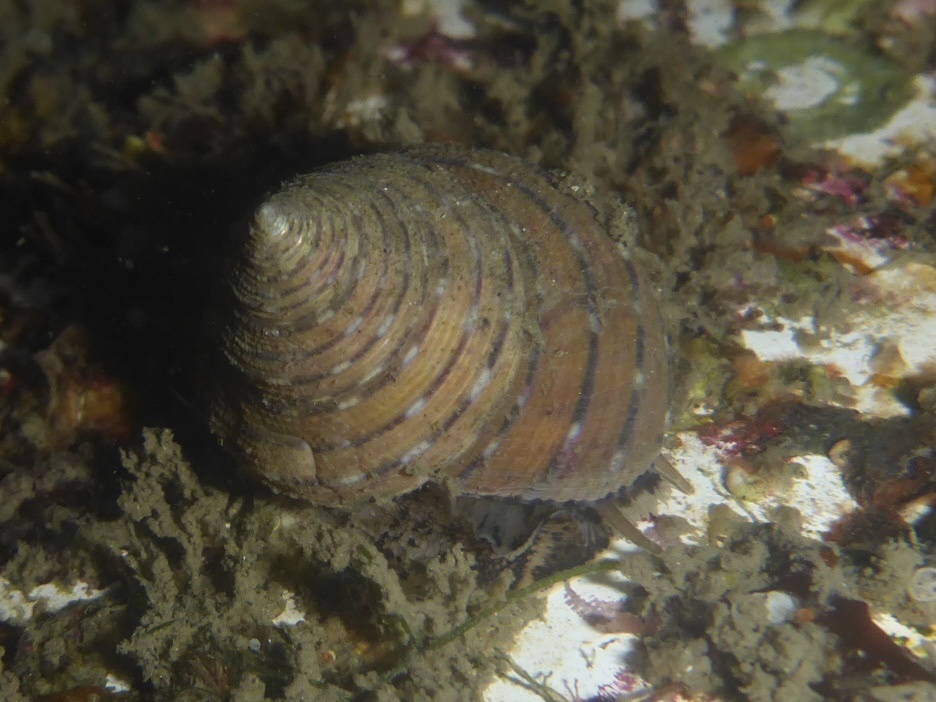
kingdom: Animalia
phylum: Mollusca
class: Gastropoda
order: Trochida
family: Calliostomatidae
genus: Calliostoma
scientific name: Calliostoma tricolor
